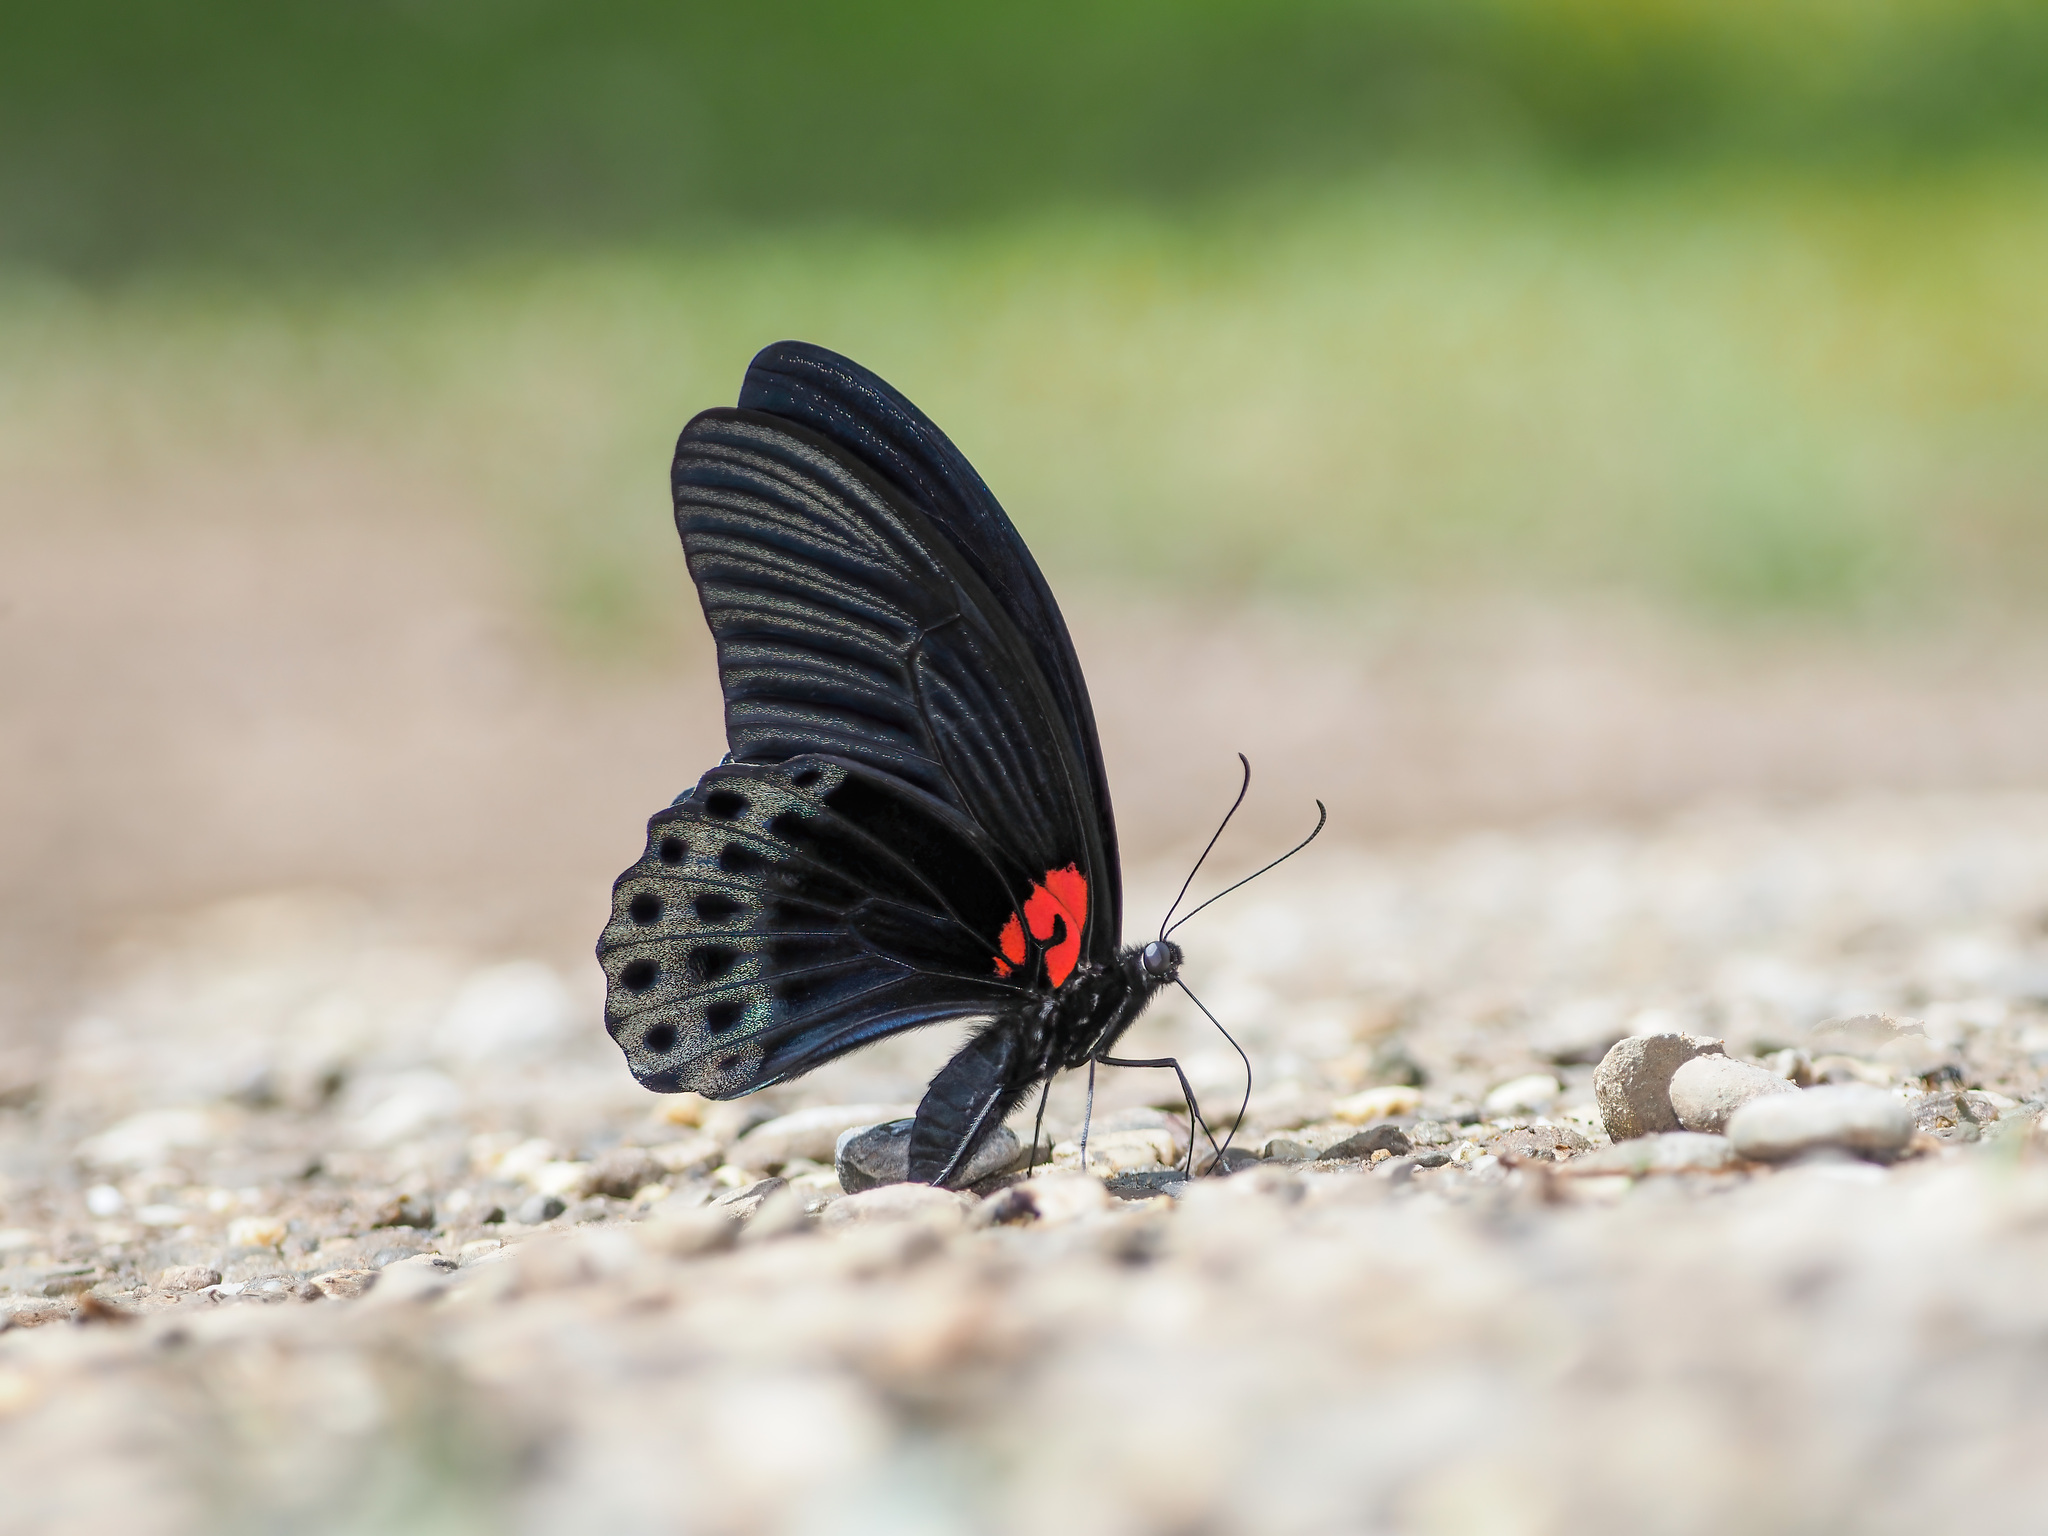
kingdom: Animalia
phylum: Arthropoda
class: Insecta
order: Lepidoptera
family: Papilionidae
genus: Papilio
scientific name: Papilio memnon
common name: Great mormon
